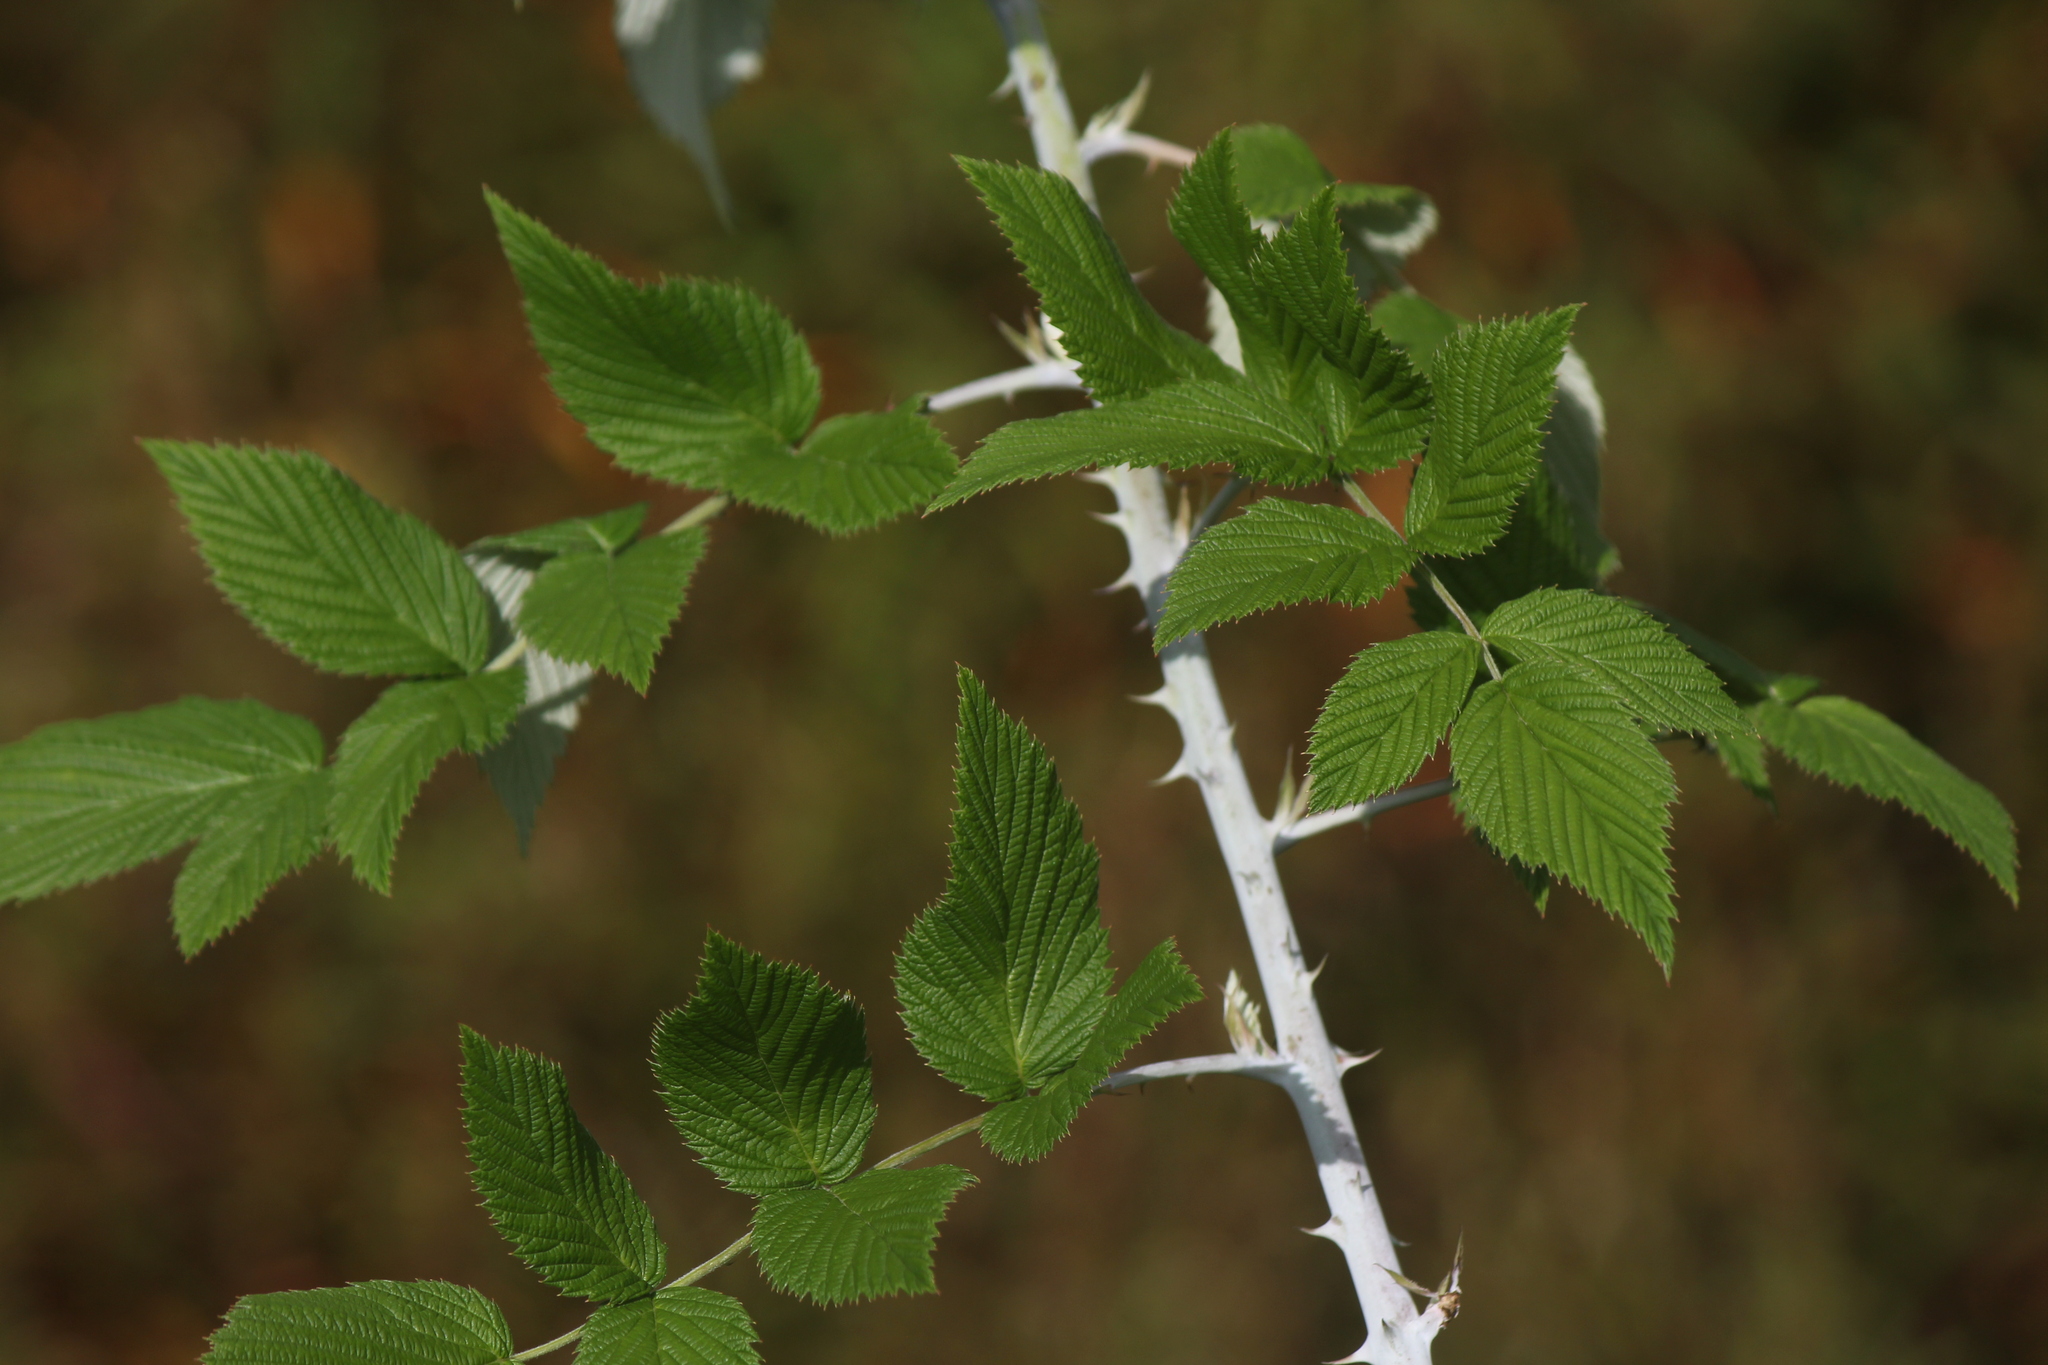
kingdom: Plantae
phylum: Tracheophyta
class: Magnoliopsida
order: Rosales
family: Rosaceae
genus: Rubus
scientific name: Rubus niveus
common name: Snowpeaks raspberry
